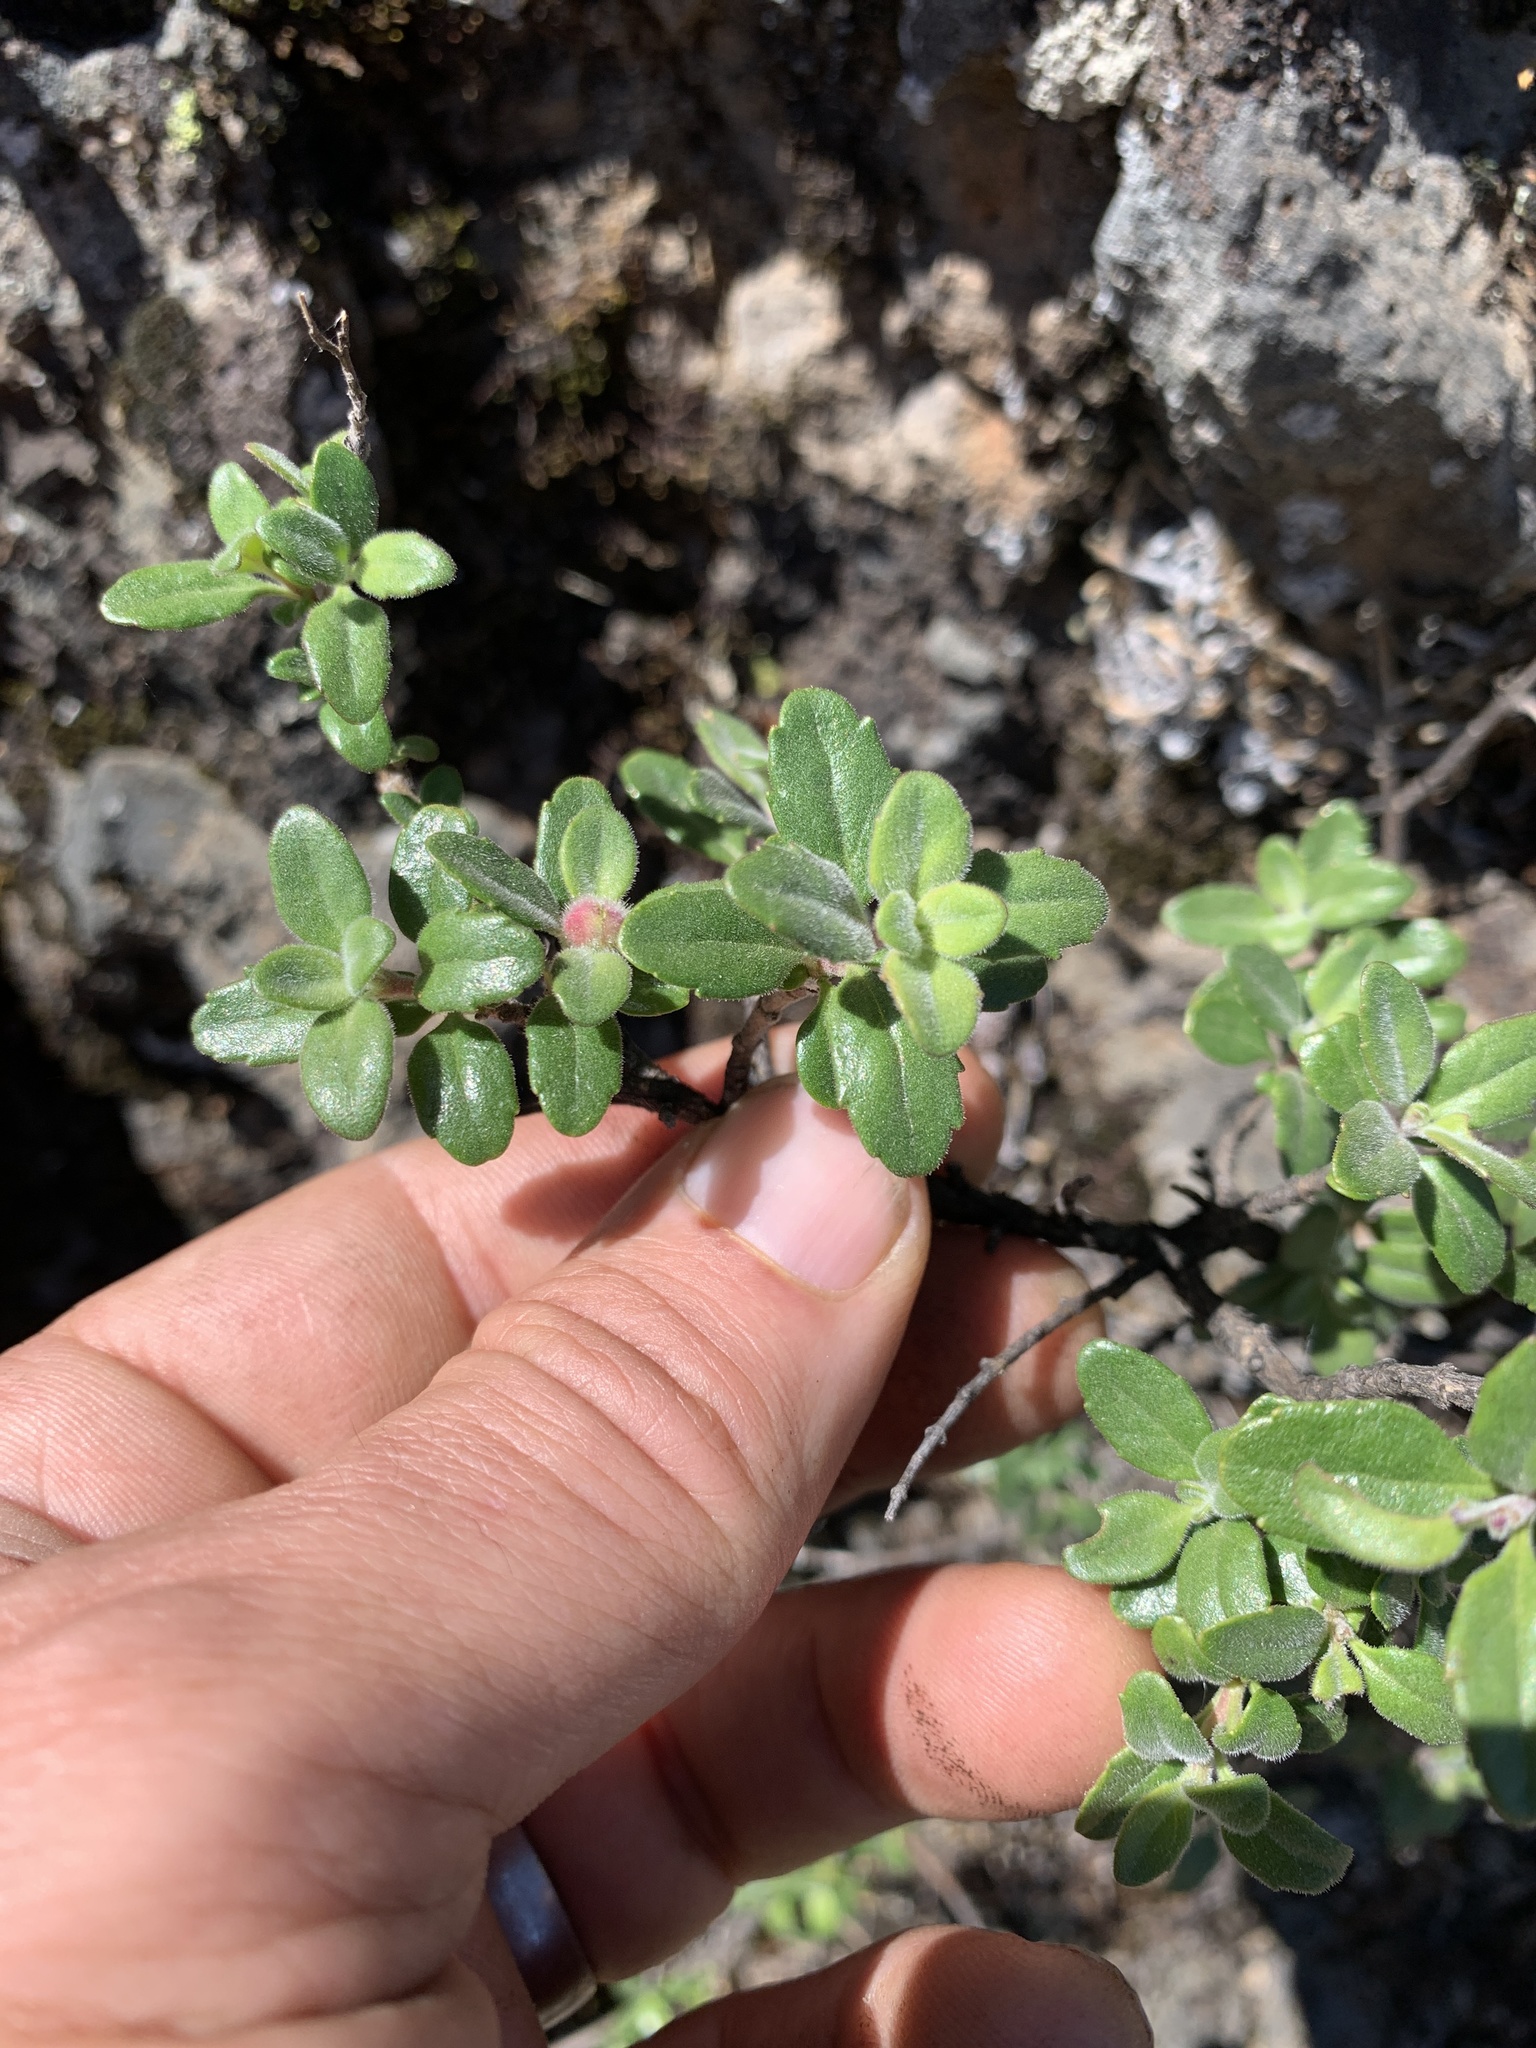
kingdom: Plantae
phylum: Tracheophyta
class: Magnoliopsida
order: Lamiales
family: Plantaginaceae
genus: Keckiella
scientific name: Keckiella corymbosa
